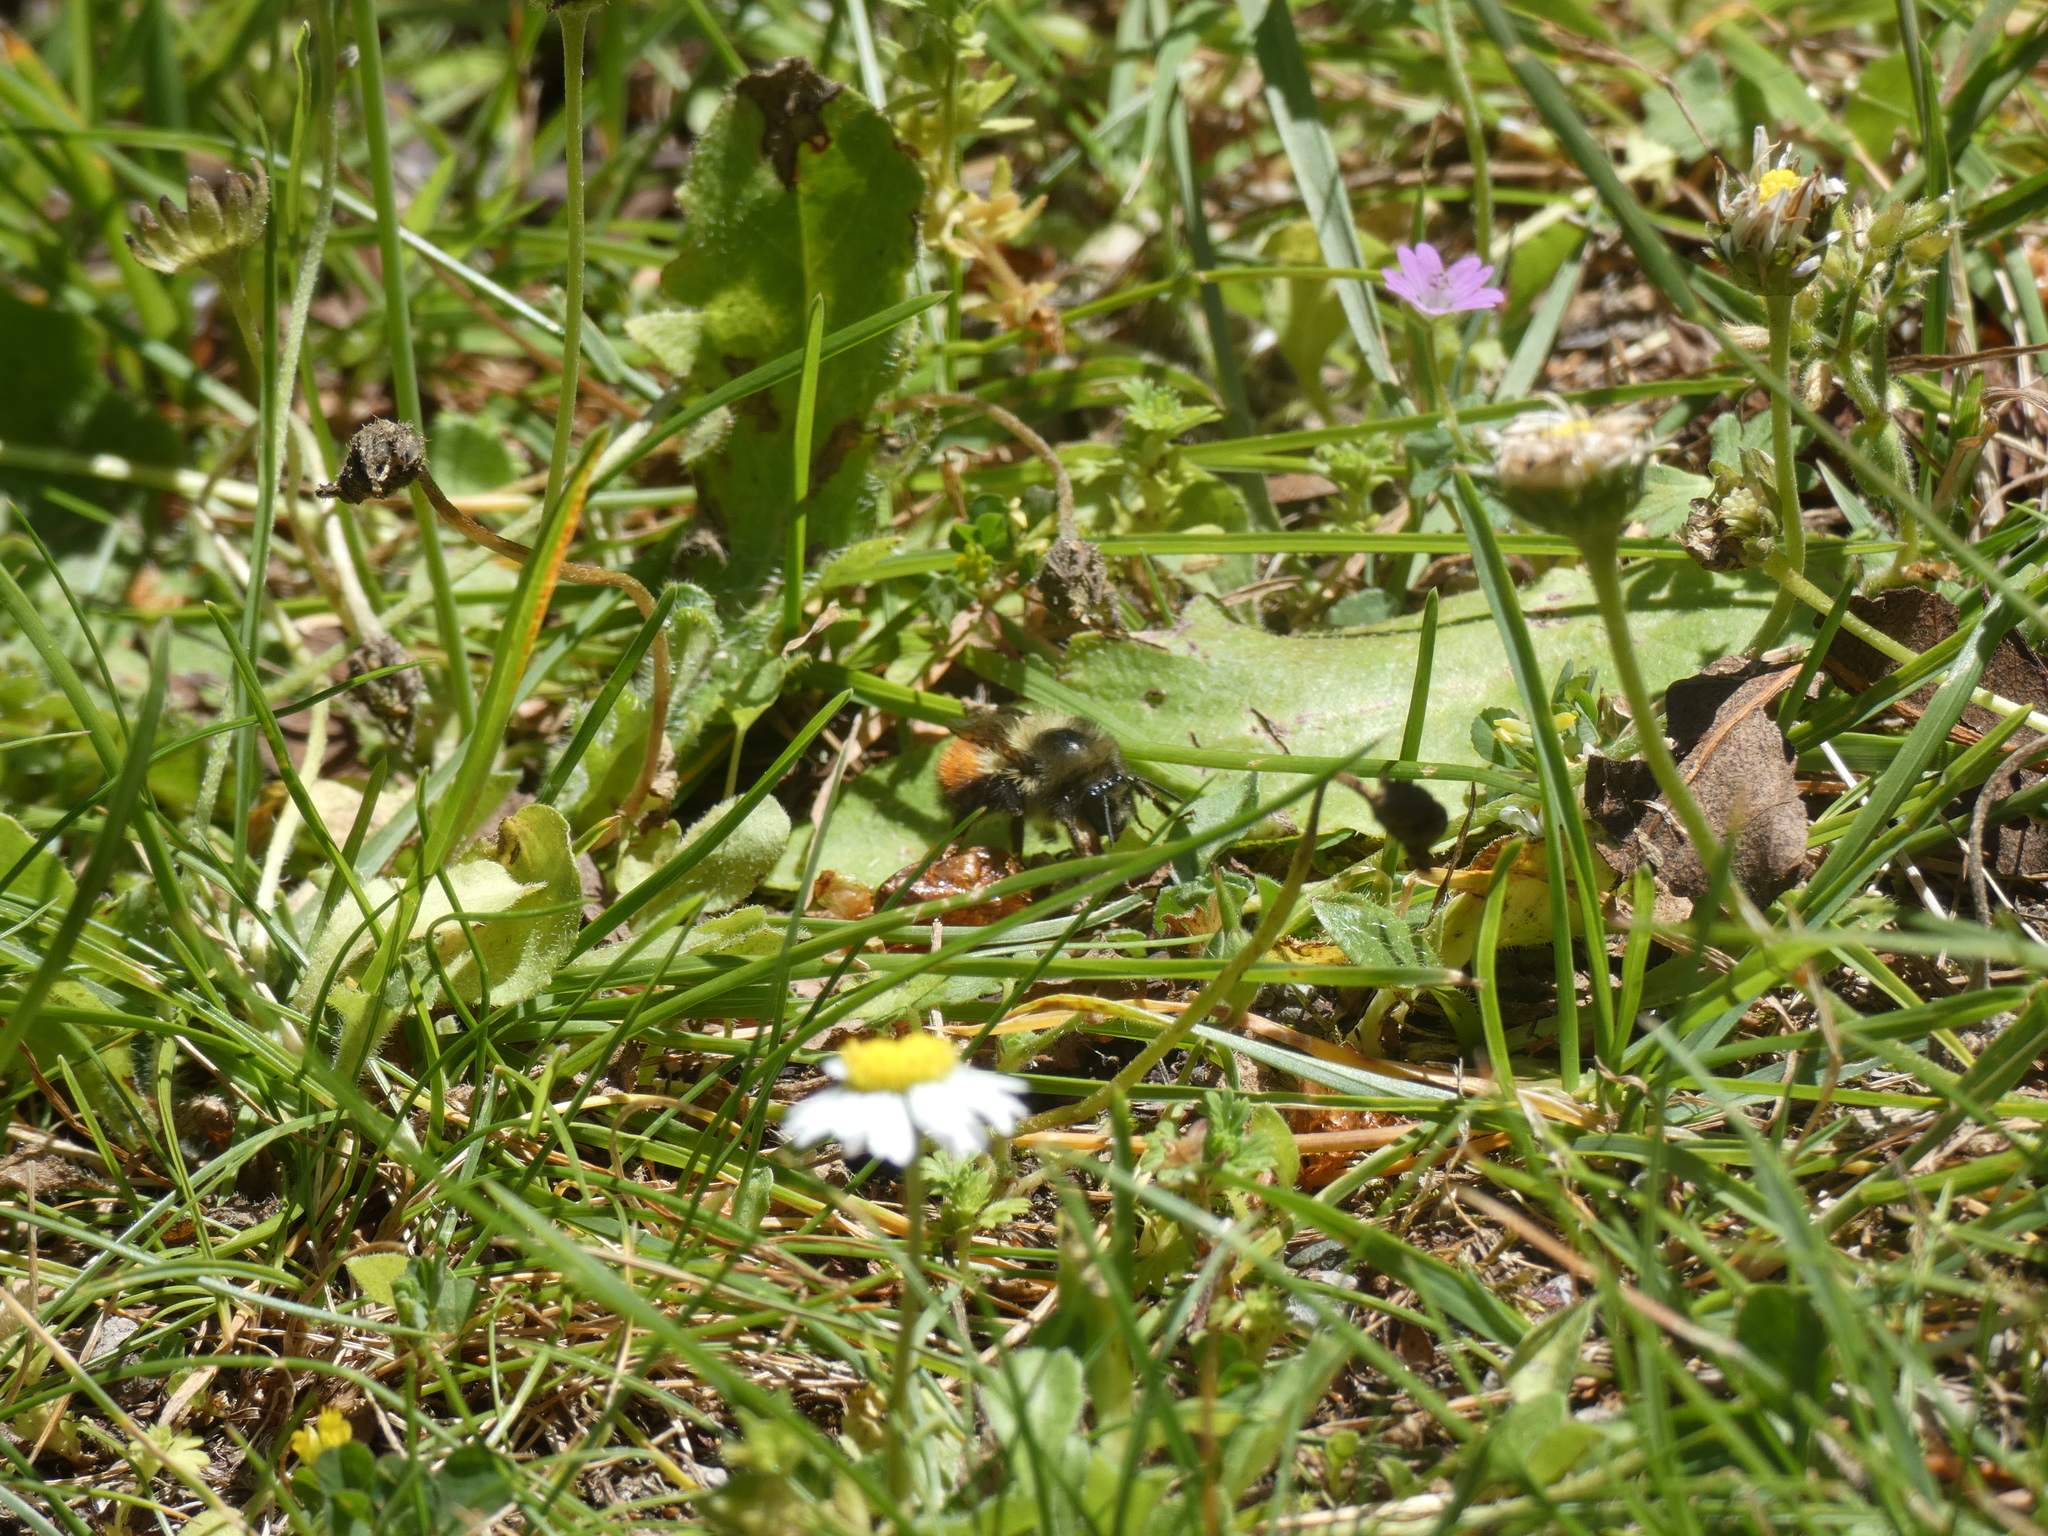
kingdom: Animalia
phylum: Arthropoda
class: Insecta
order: Hymenoptera
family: Apidae
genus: Bombus
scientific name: Bombus melanopygus
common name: Black tail bumble bee
